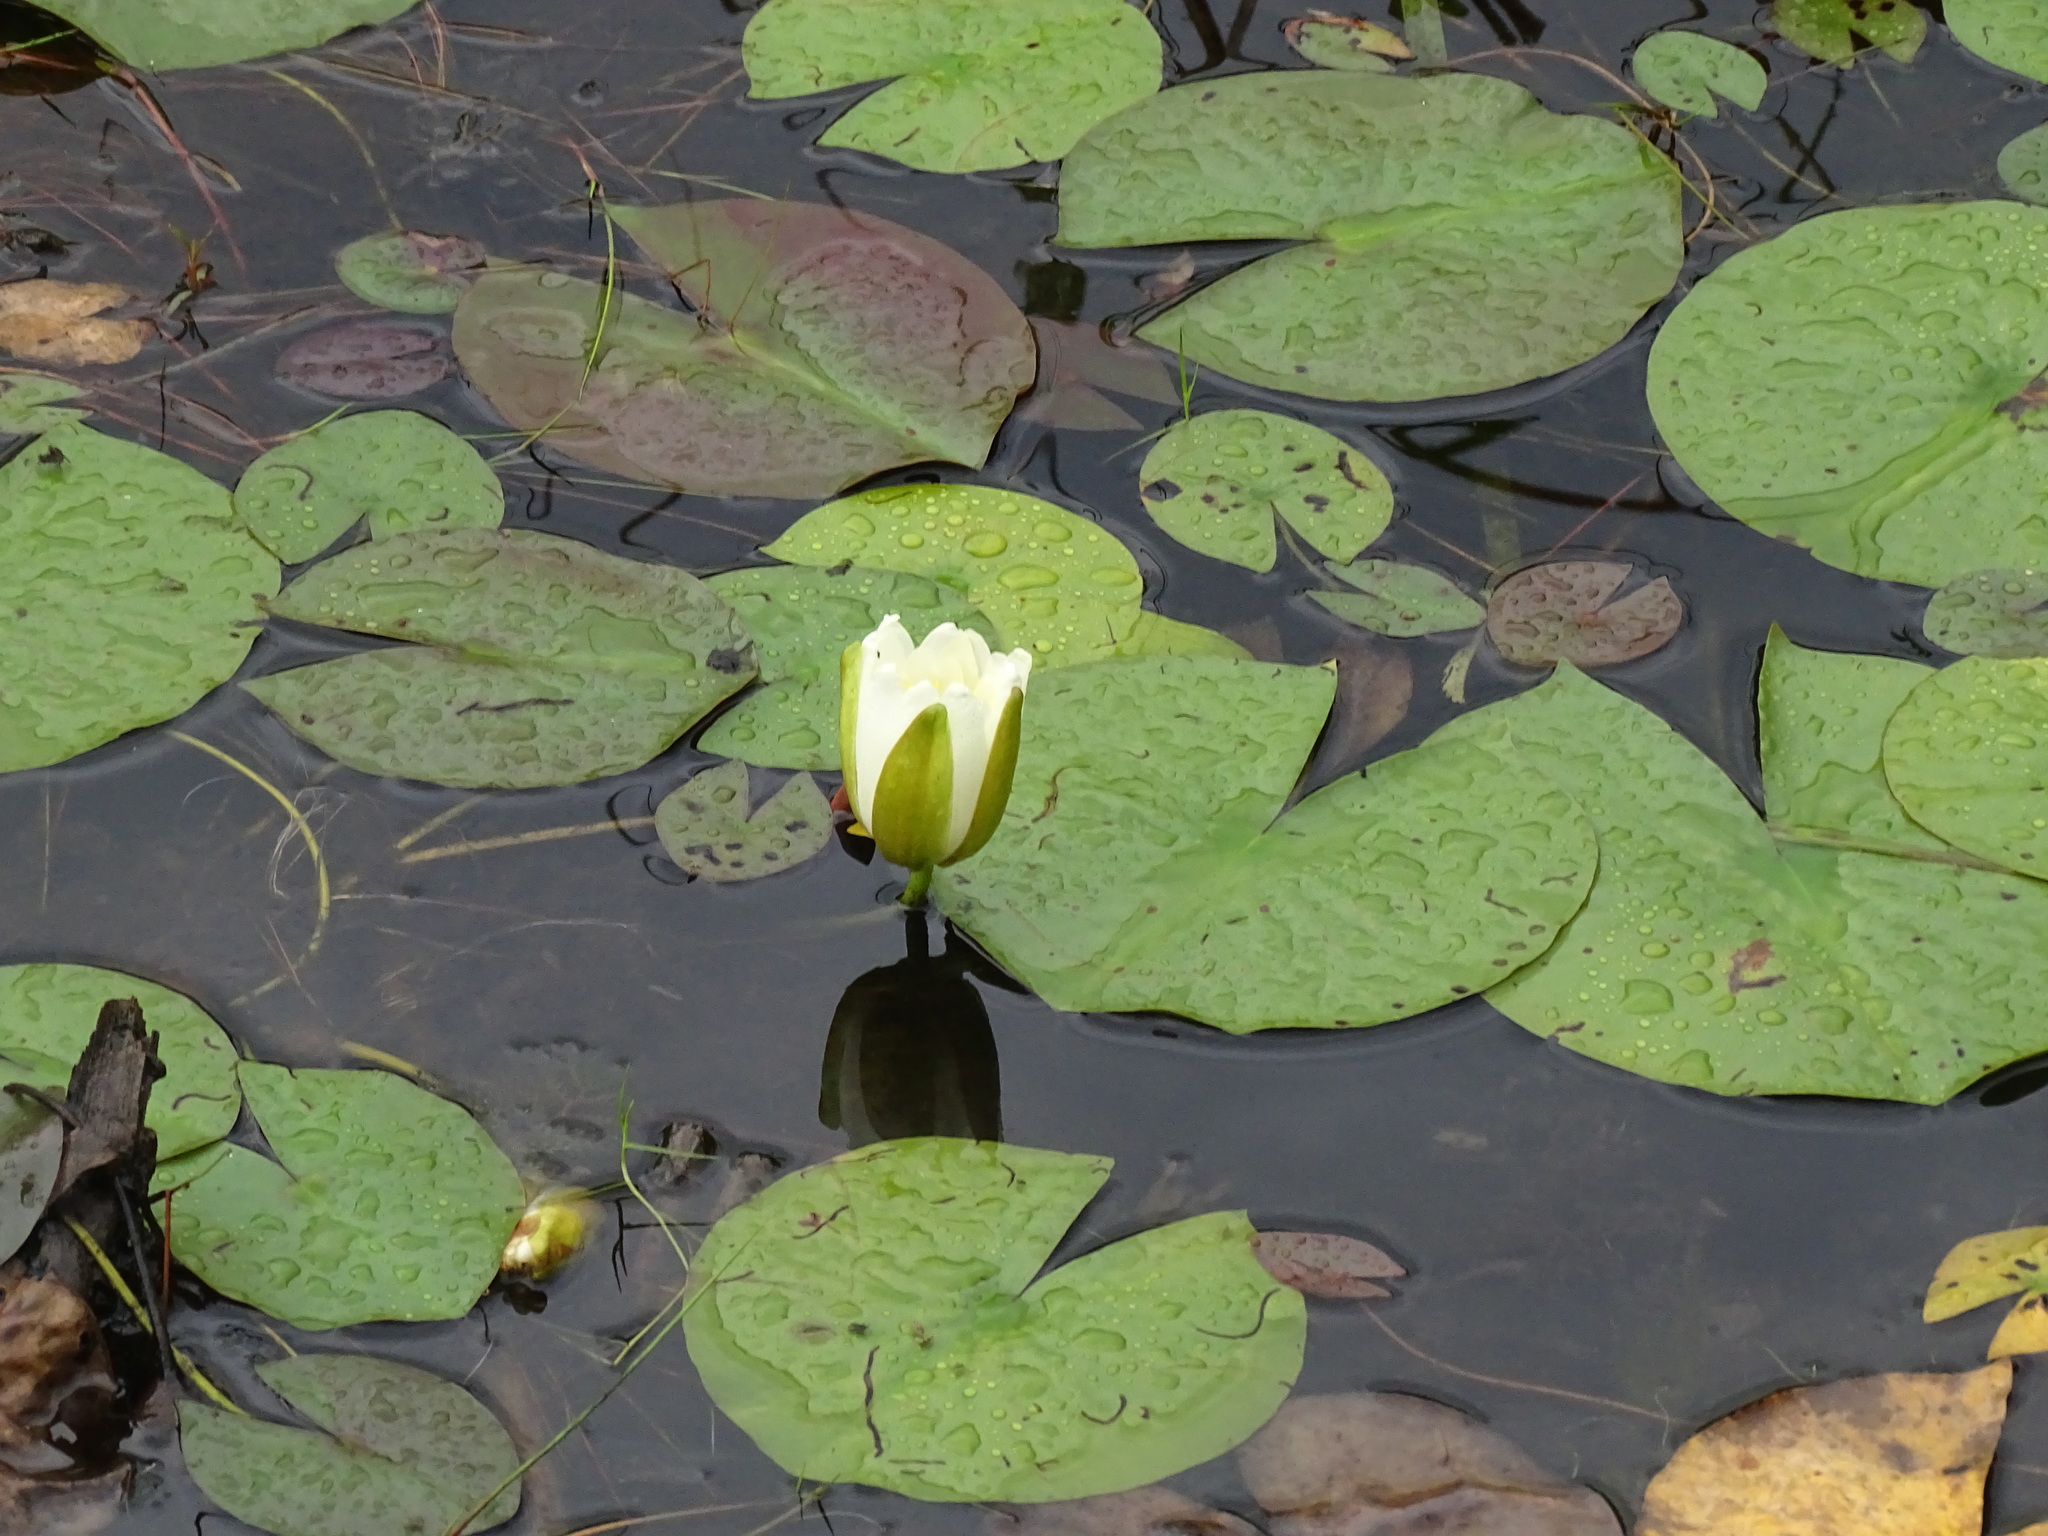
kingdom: Plantae
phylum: Tracheophyta
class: Magnoliopsida
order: Nymphaeales
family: Nymphaeaceae
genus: Nymphaea
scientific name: Nymphaea odorata
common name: Fragrant water-lily
